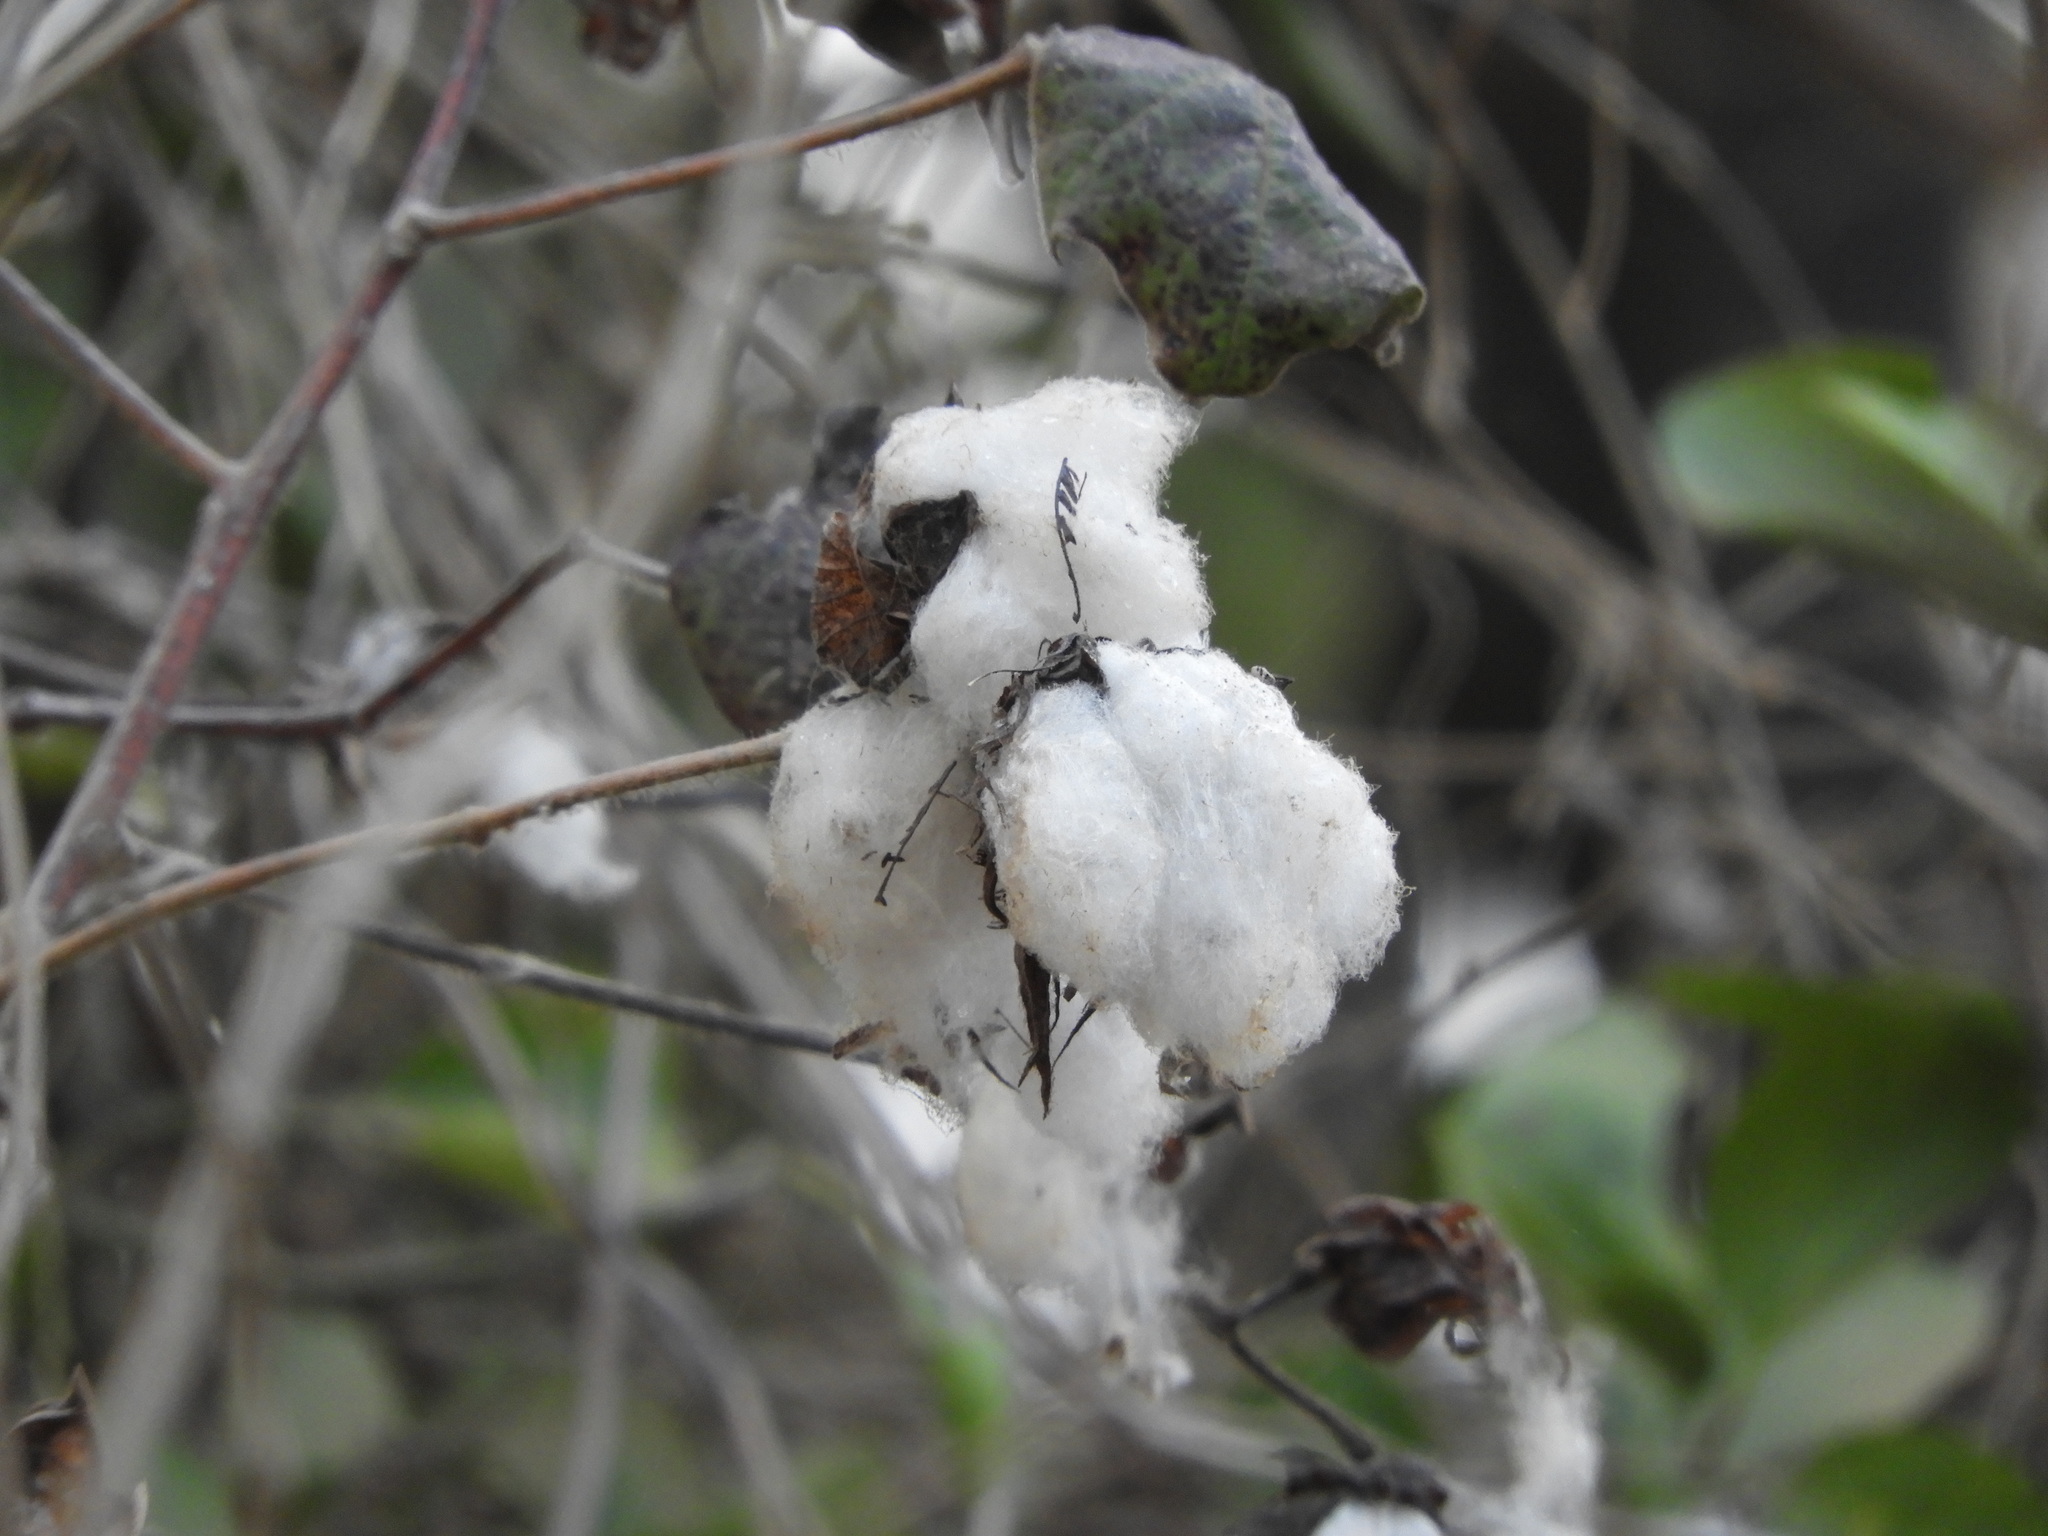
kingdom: Plantae
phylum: Tracheophyta
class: Magnoliopsida
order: Malvales
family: Malvaceae
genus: Gossypium
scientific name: Gossypium hirsutum
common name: Cotton
